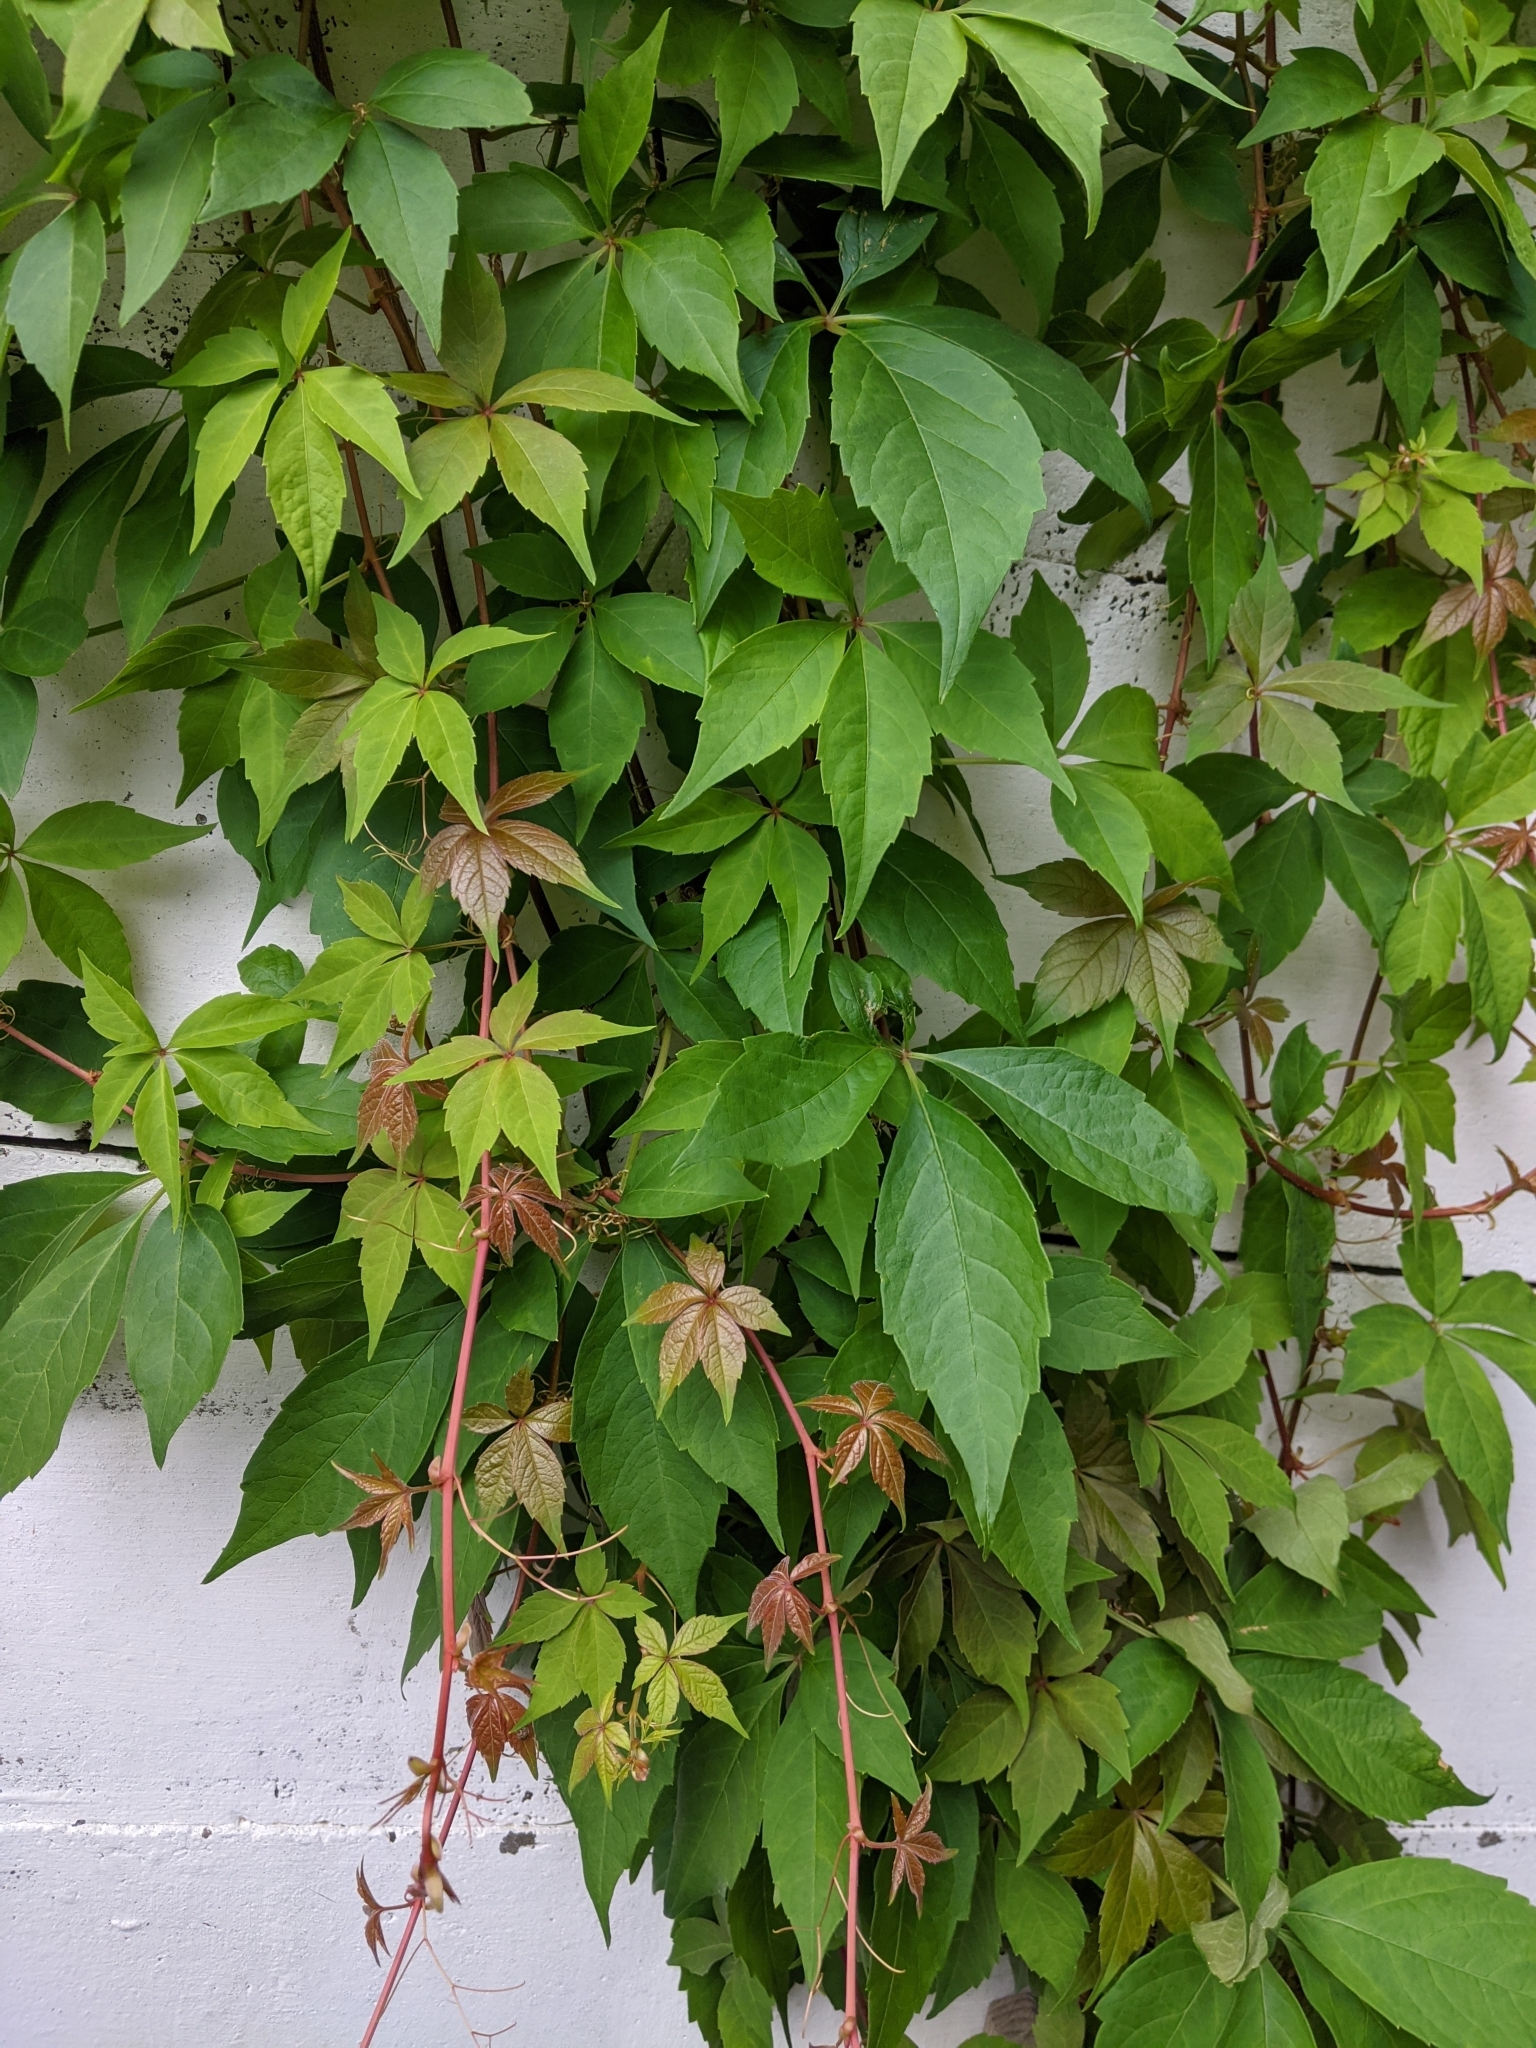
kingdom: Plantae
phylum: Tracheophyta
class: Magnoliopsida
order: Vitales
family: Vitaceae
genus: Parthenocissus
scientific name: Parthenocissus quinquefolia
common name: Virginia-creeper
